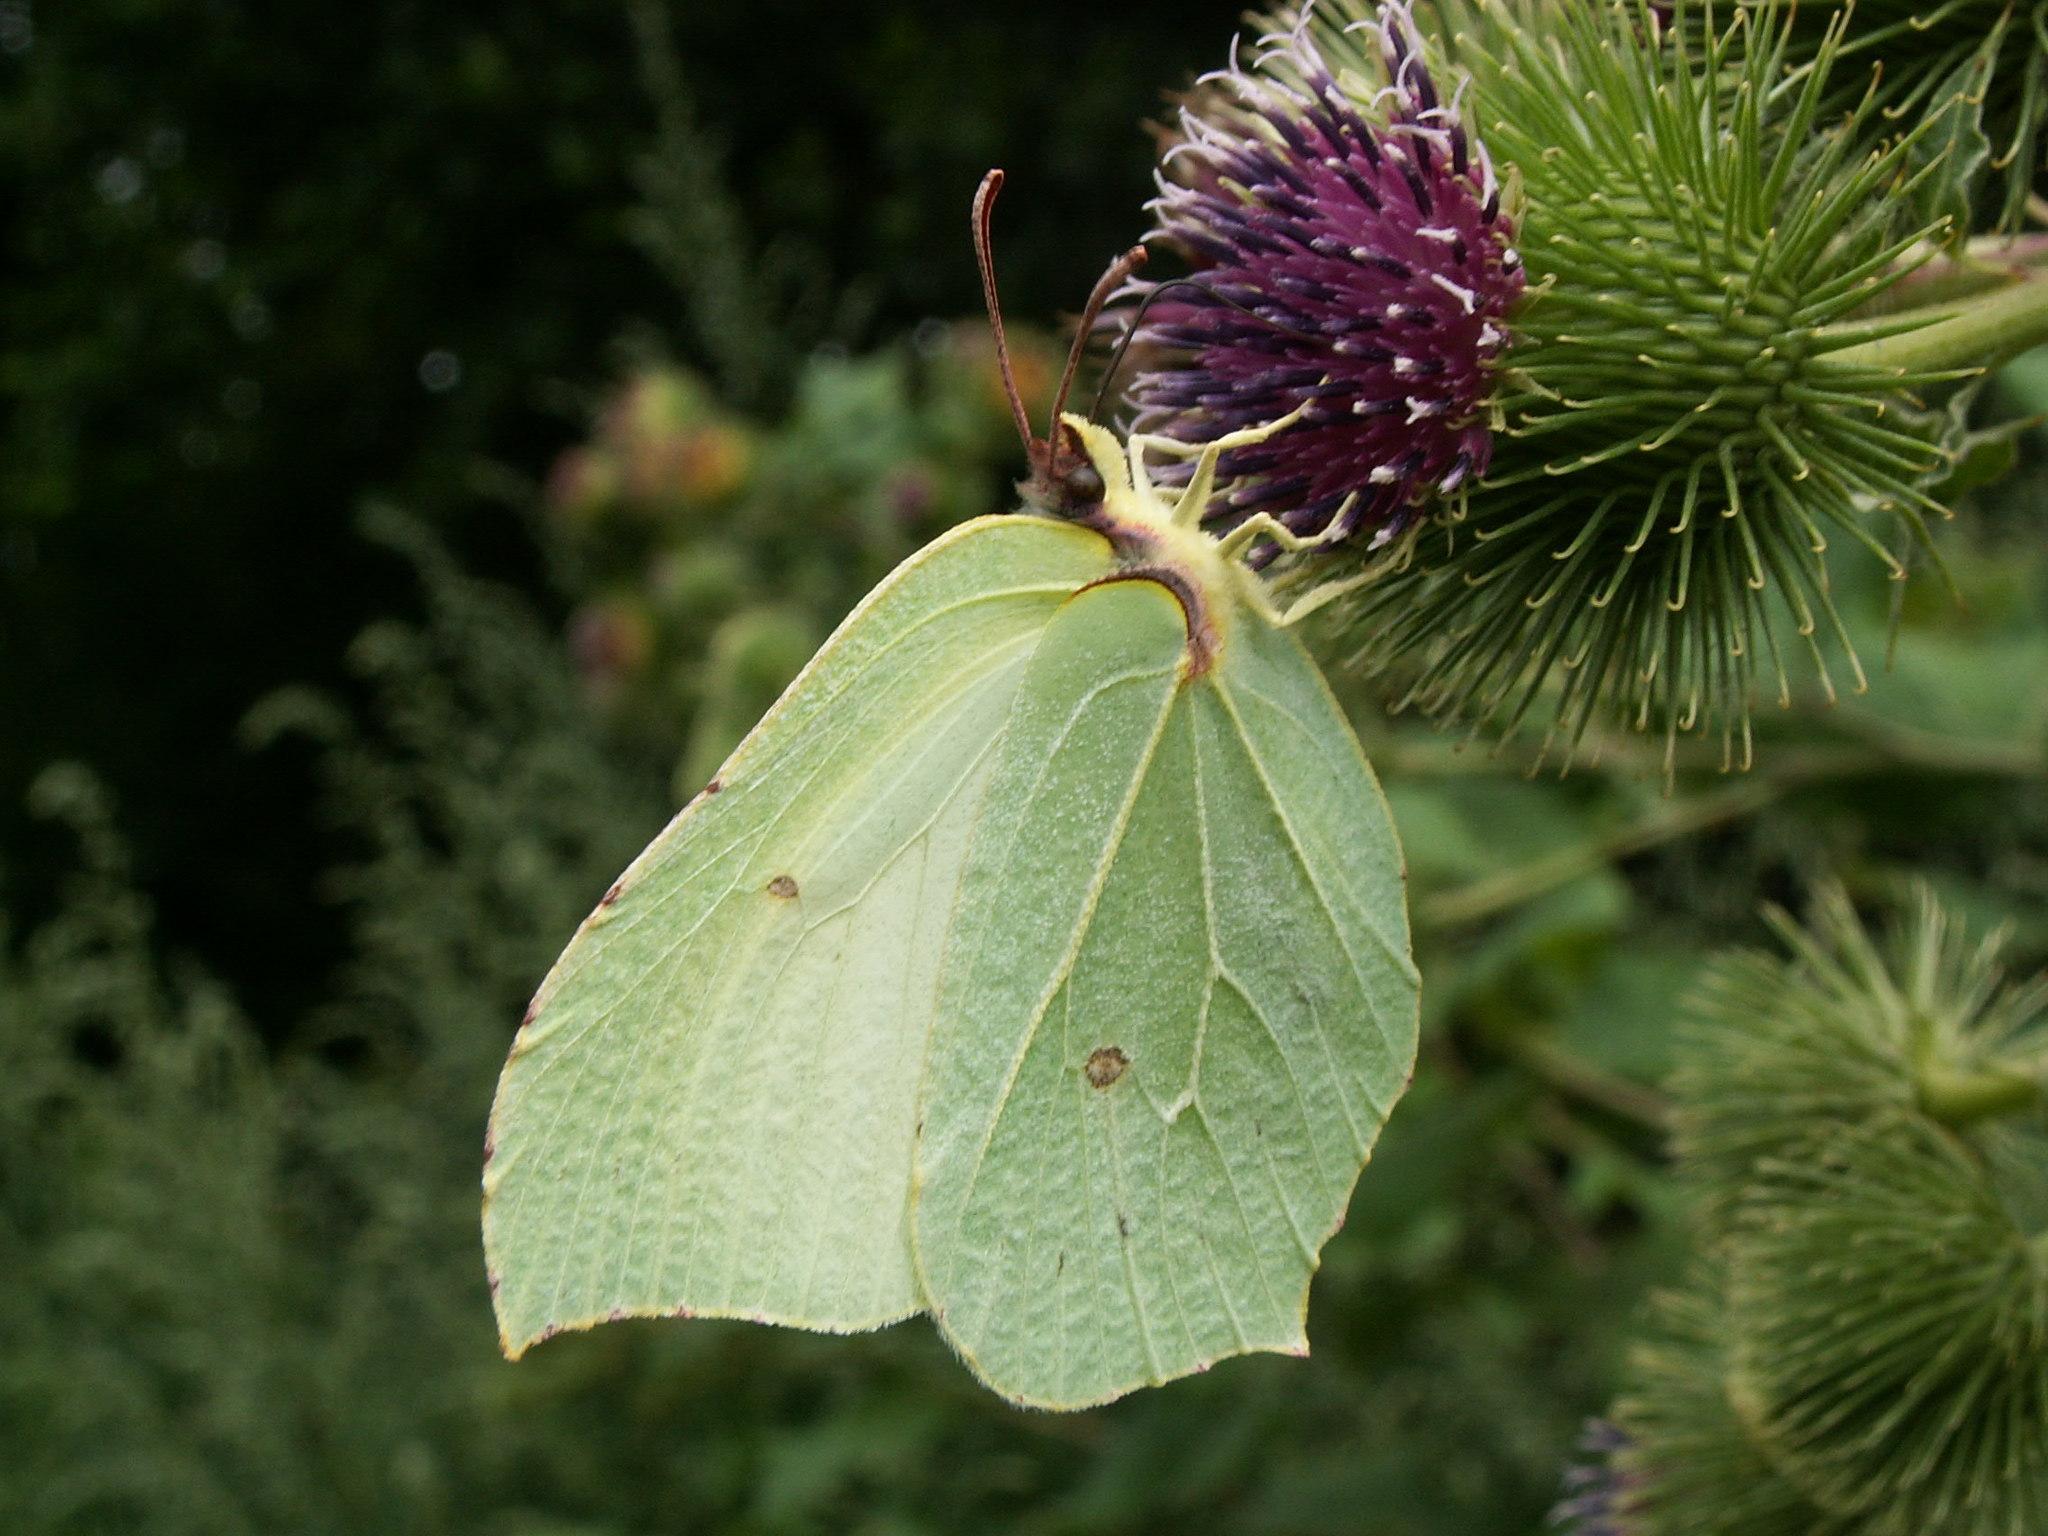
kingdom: Animalia
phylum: Arthropoda
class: Insecta
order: Lepidoptera
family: Pieridae
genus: Gonepteryx
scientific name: Gonepteryx rhamni
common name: Brimstone
